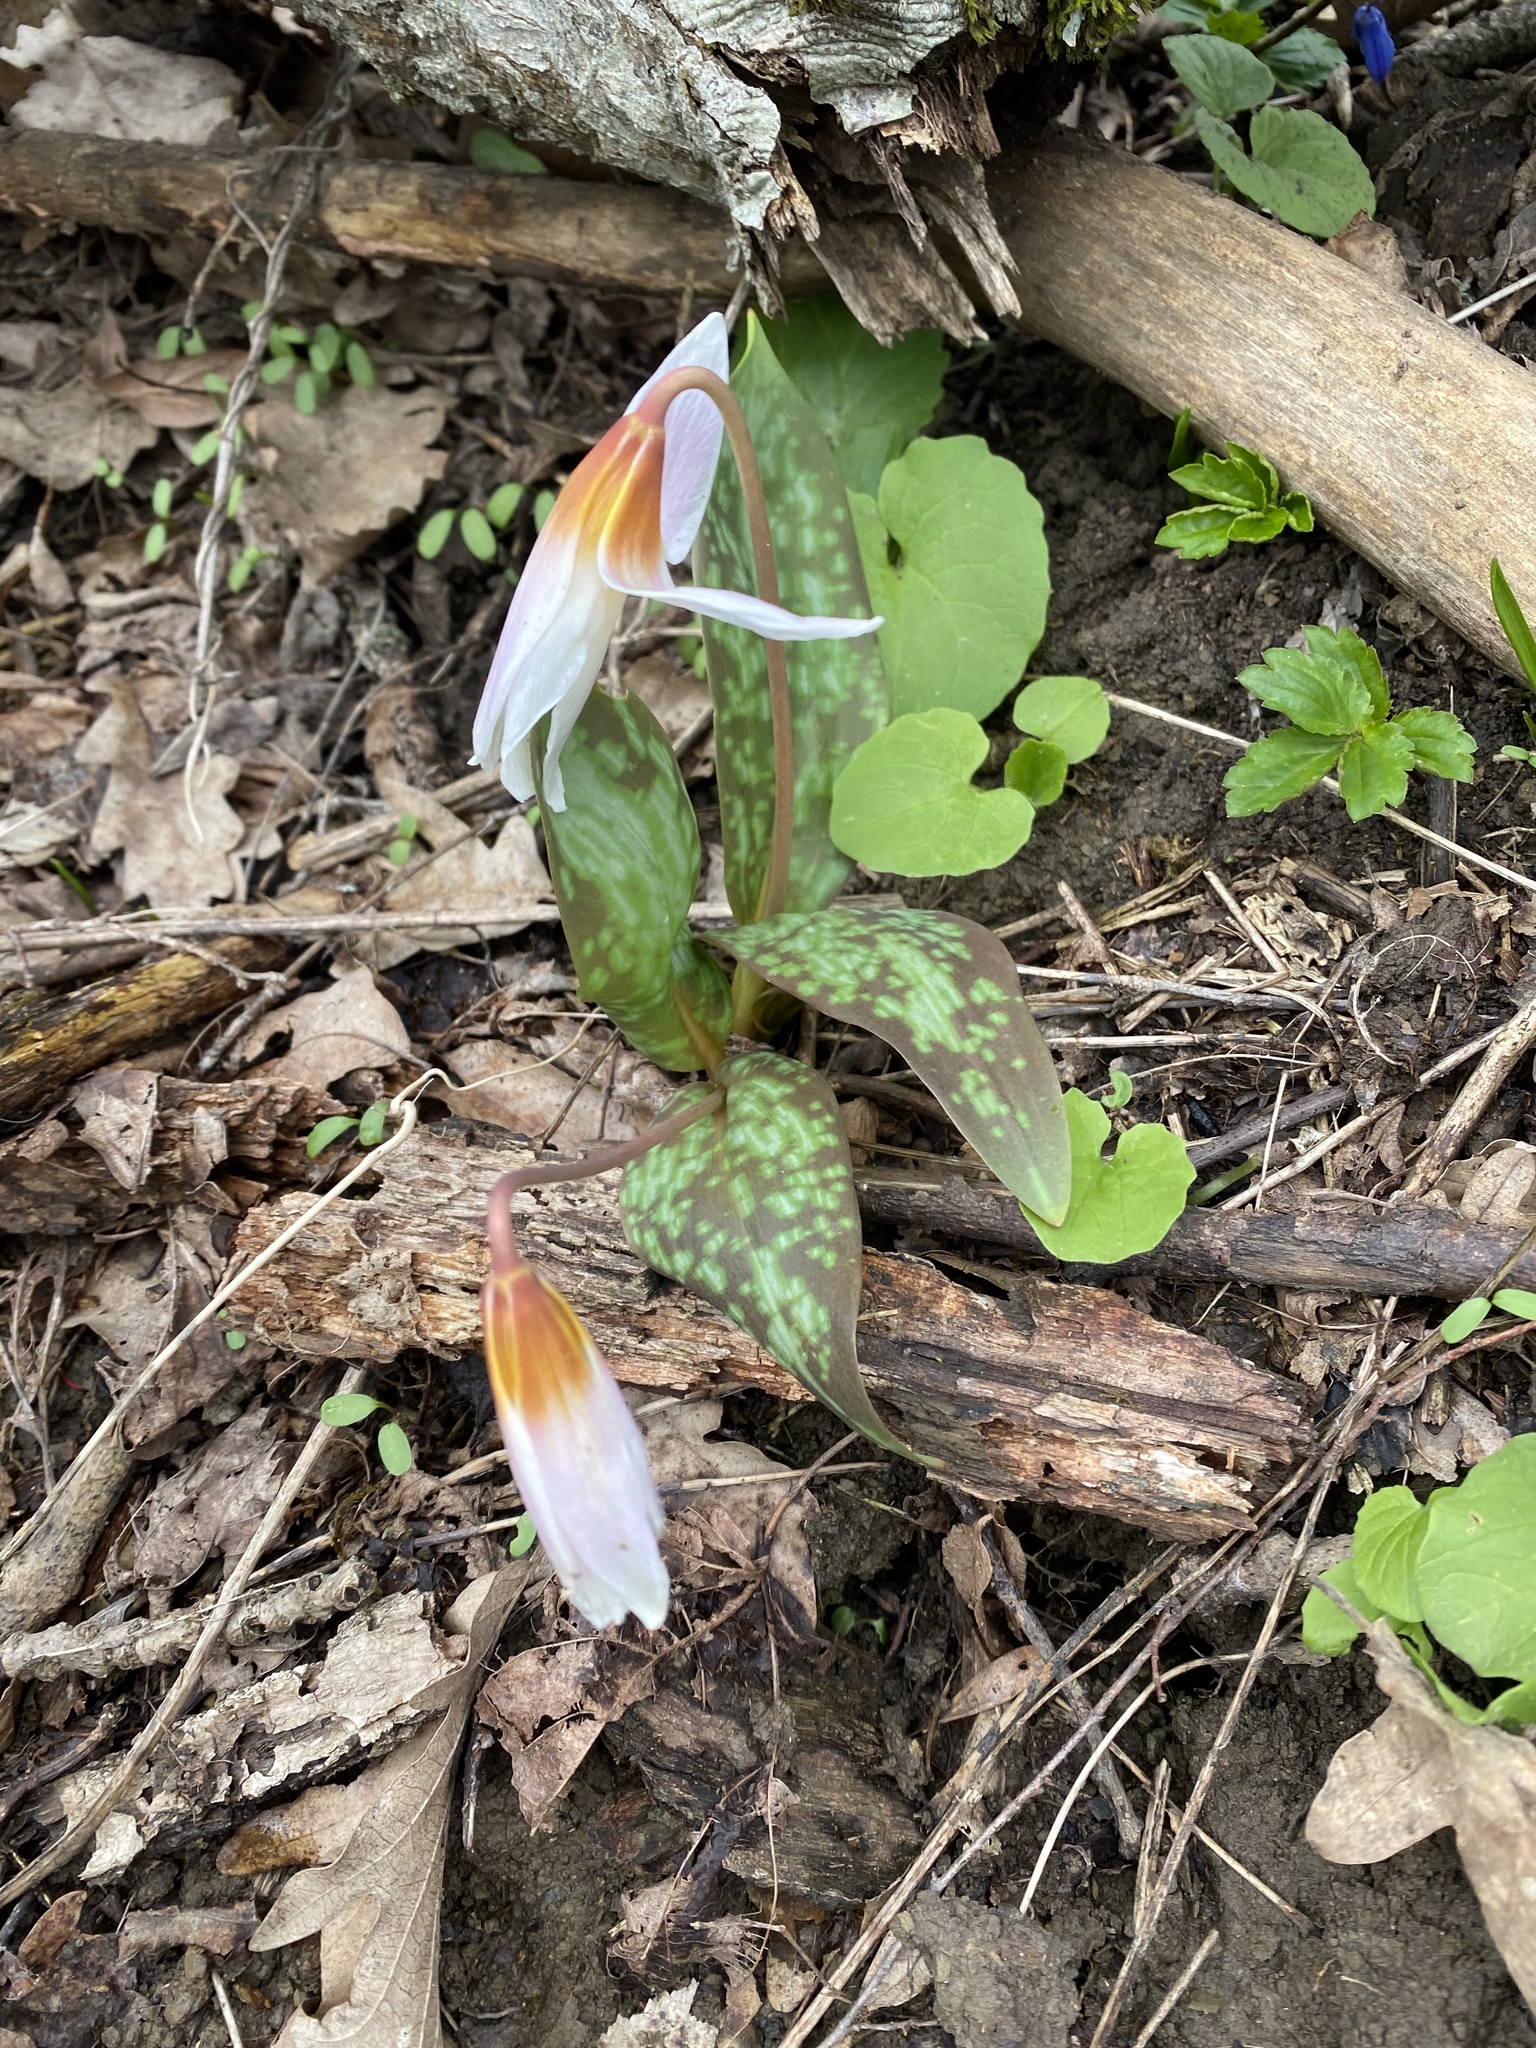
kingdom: Plantae
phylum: Tracheophyta
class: Liliopsida
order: Liliales
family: Liliaceae
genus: Erythronium
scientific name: Erythronium caucasicum
